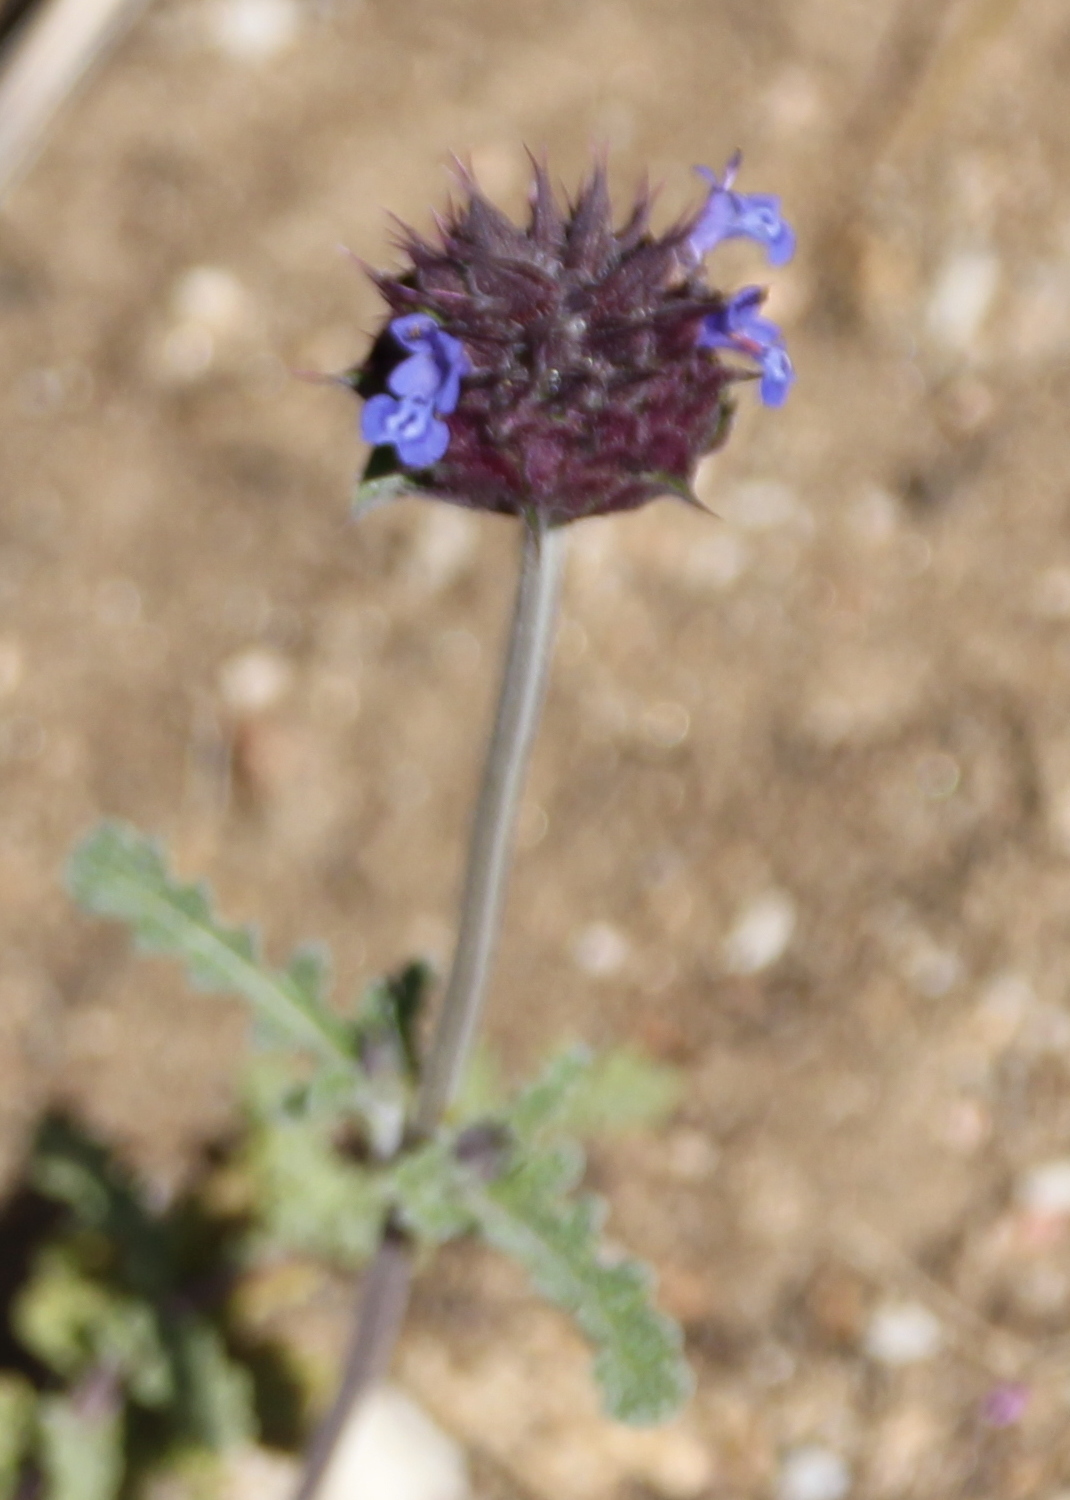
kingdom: Plantae
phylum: Tracheophyta
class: Magnoliopsida
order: Lamiales
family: Lamiaceae
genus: Salvia
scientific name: Salvia columbariae
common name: Chia
